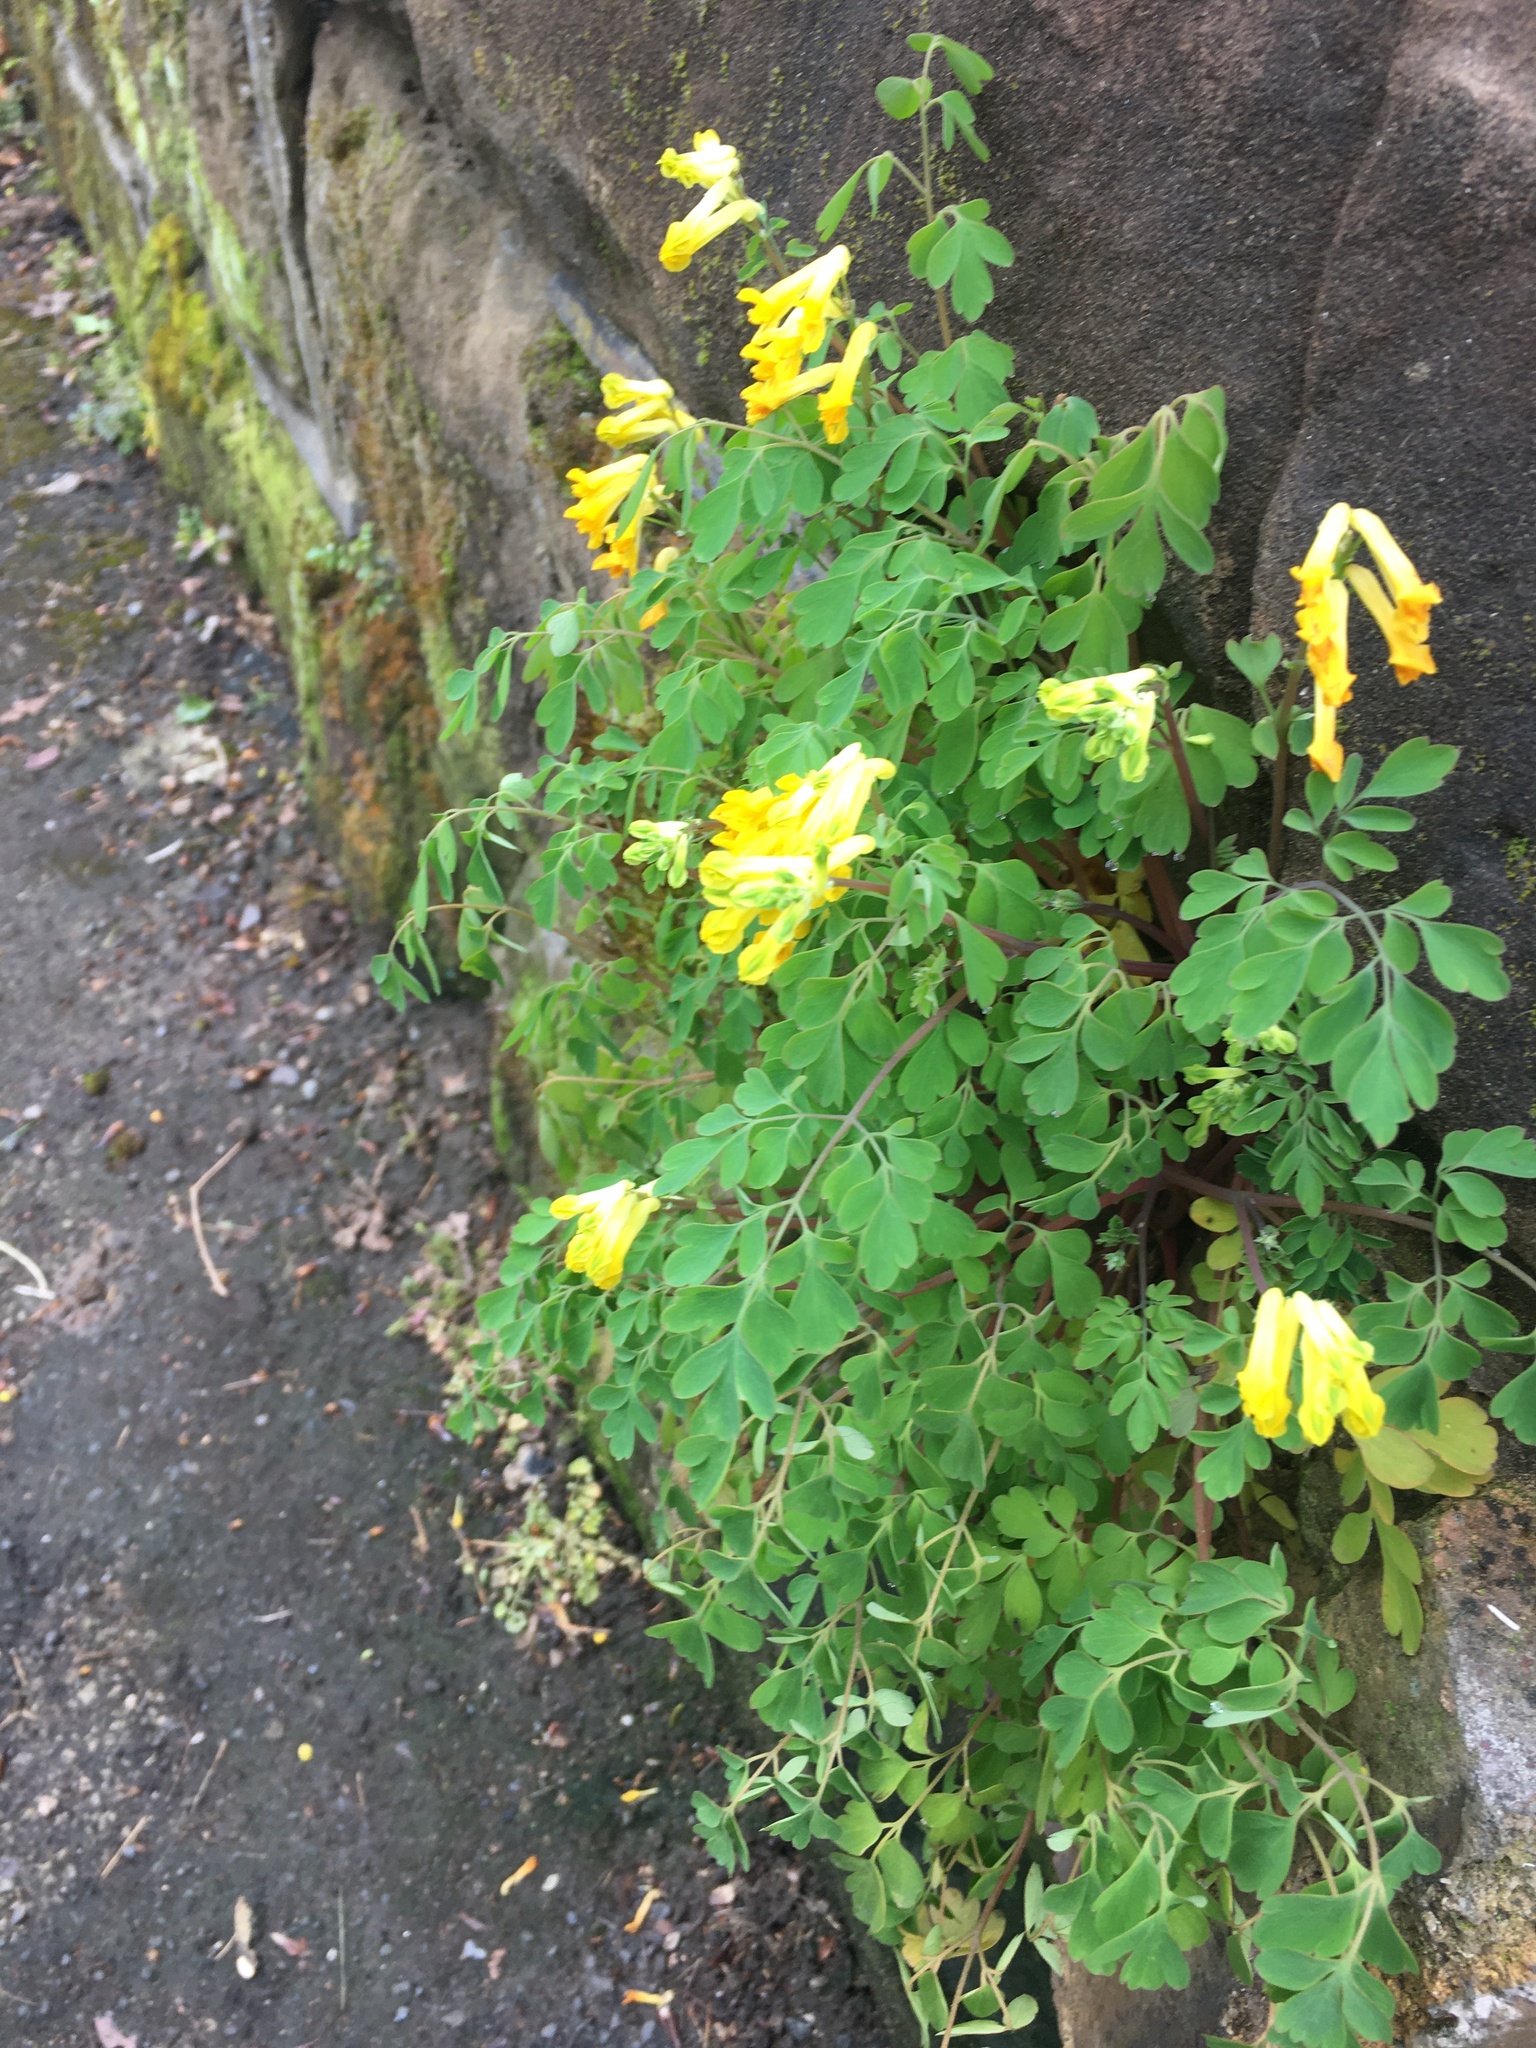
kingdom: Plantae
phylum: Tracheophyta
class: Magnoliopsida
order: Ranunculales
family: Papaveraceae
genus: Pseudofumaria
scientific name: Pseudofumaria lutea
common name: Yellow corydalis
